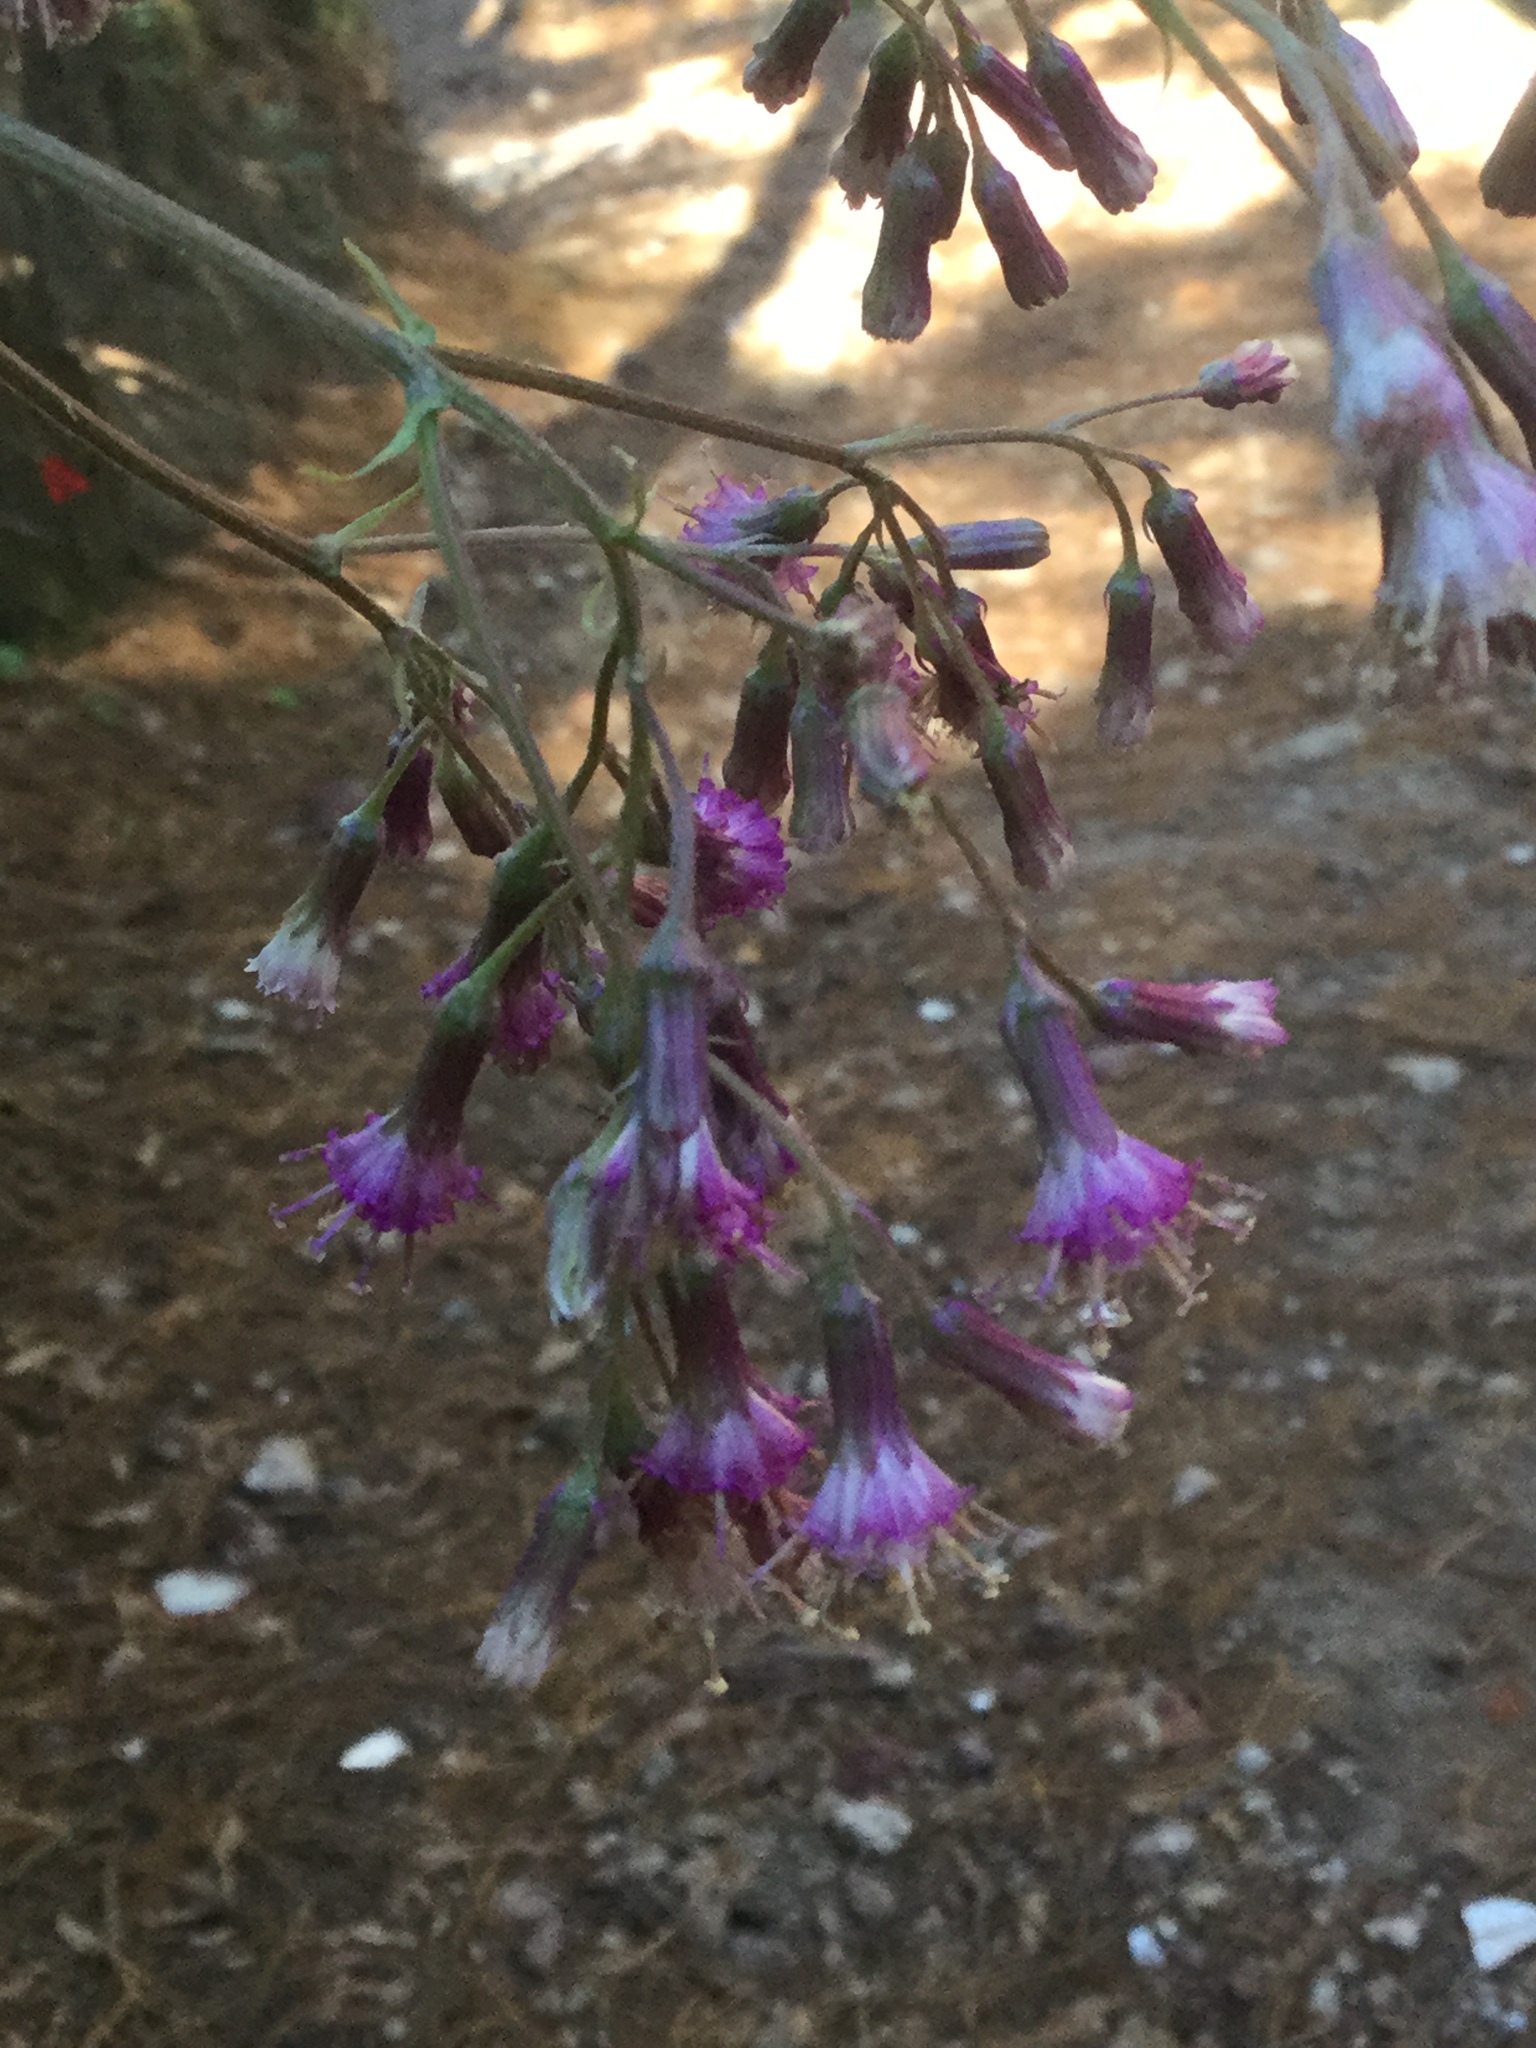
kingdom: Plantae
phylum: Tracheophyta
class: Magnoliopsida
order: Asterales
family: Asteraceae
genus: Senecio
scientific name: Senecio callosus
